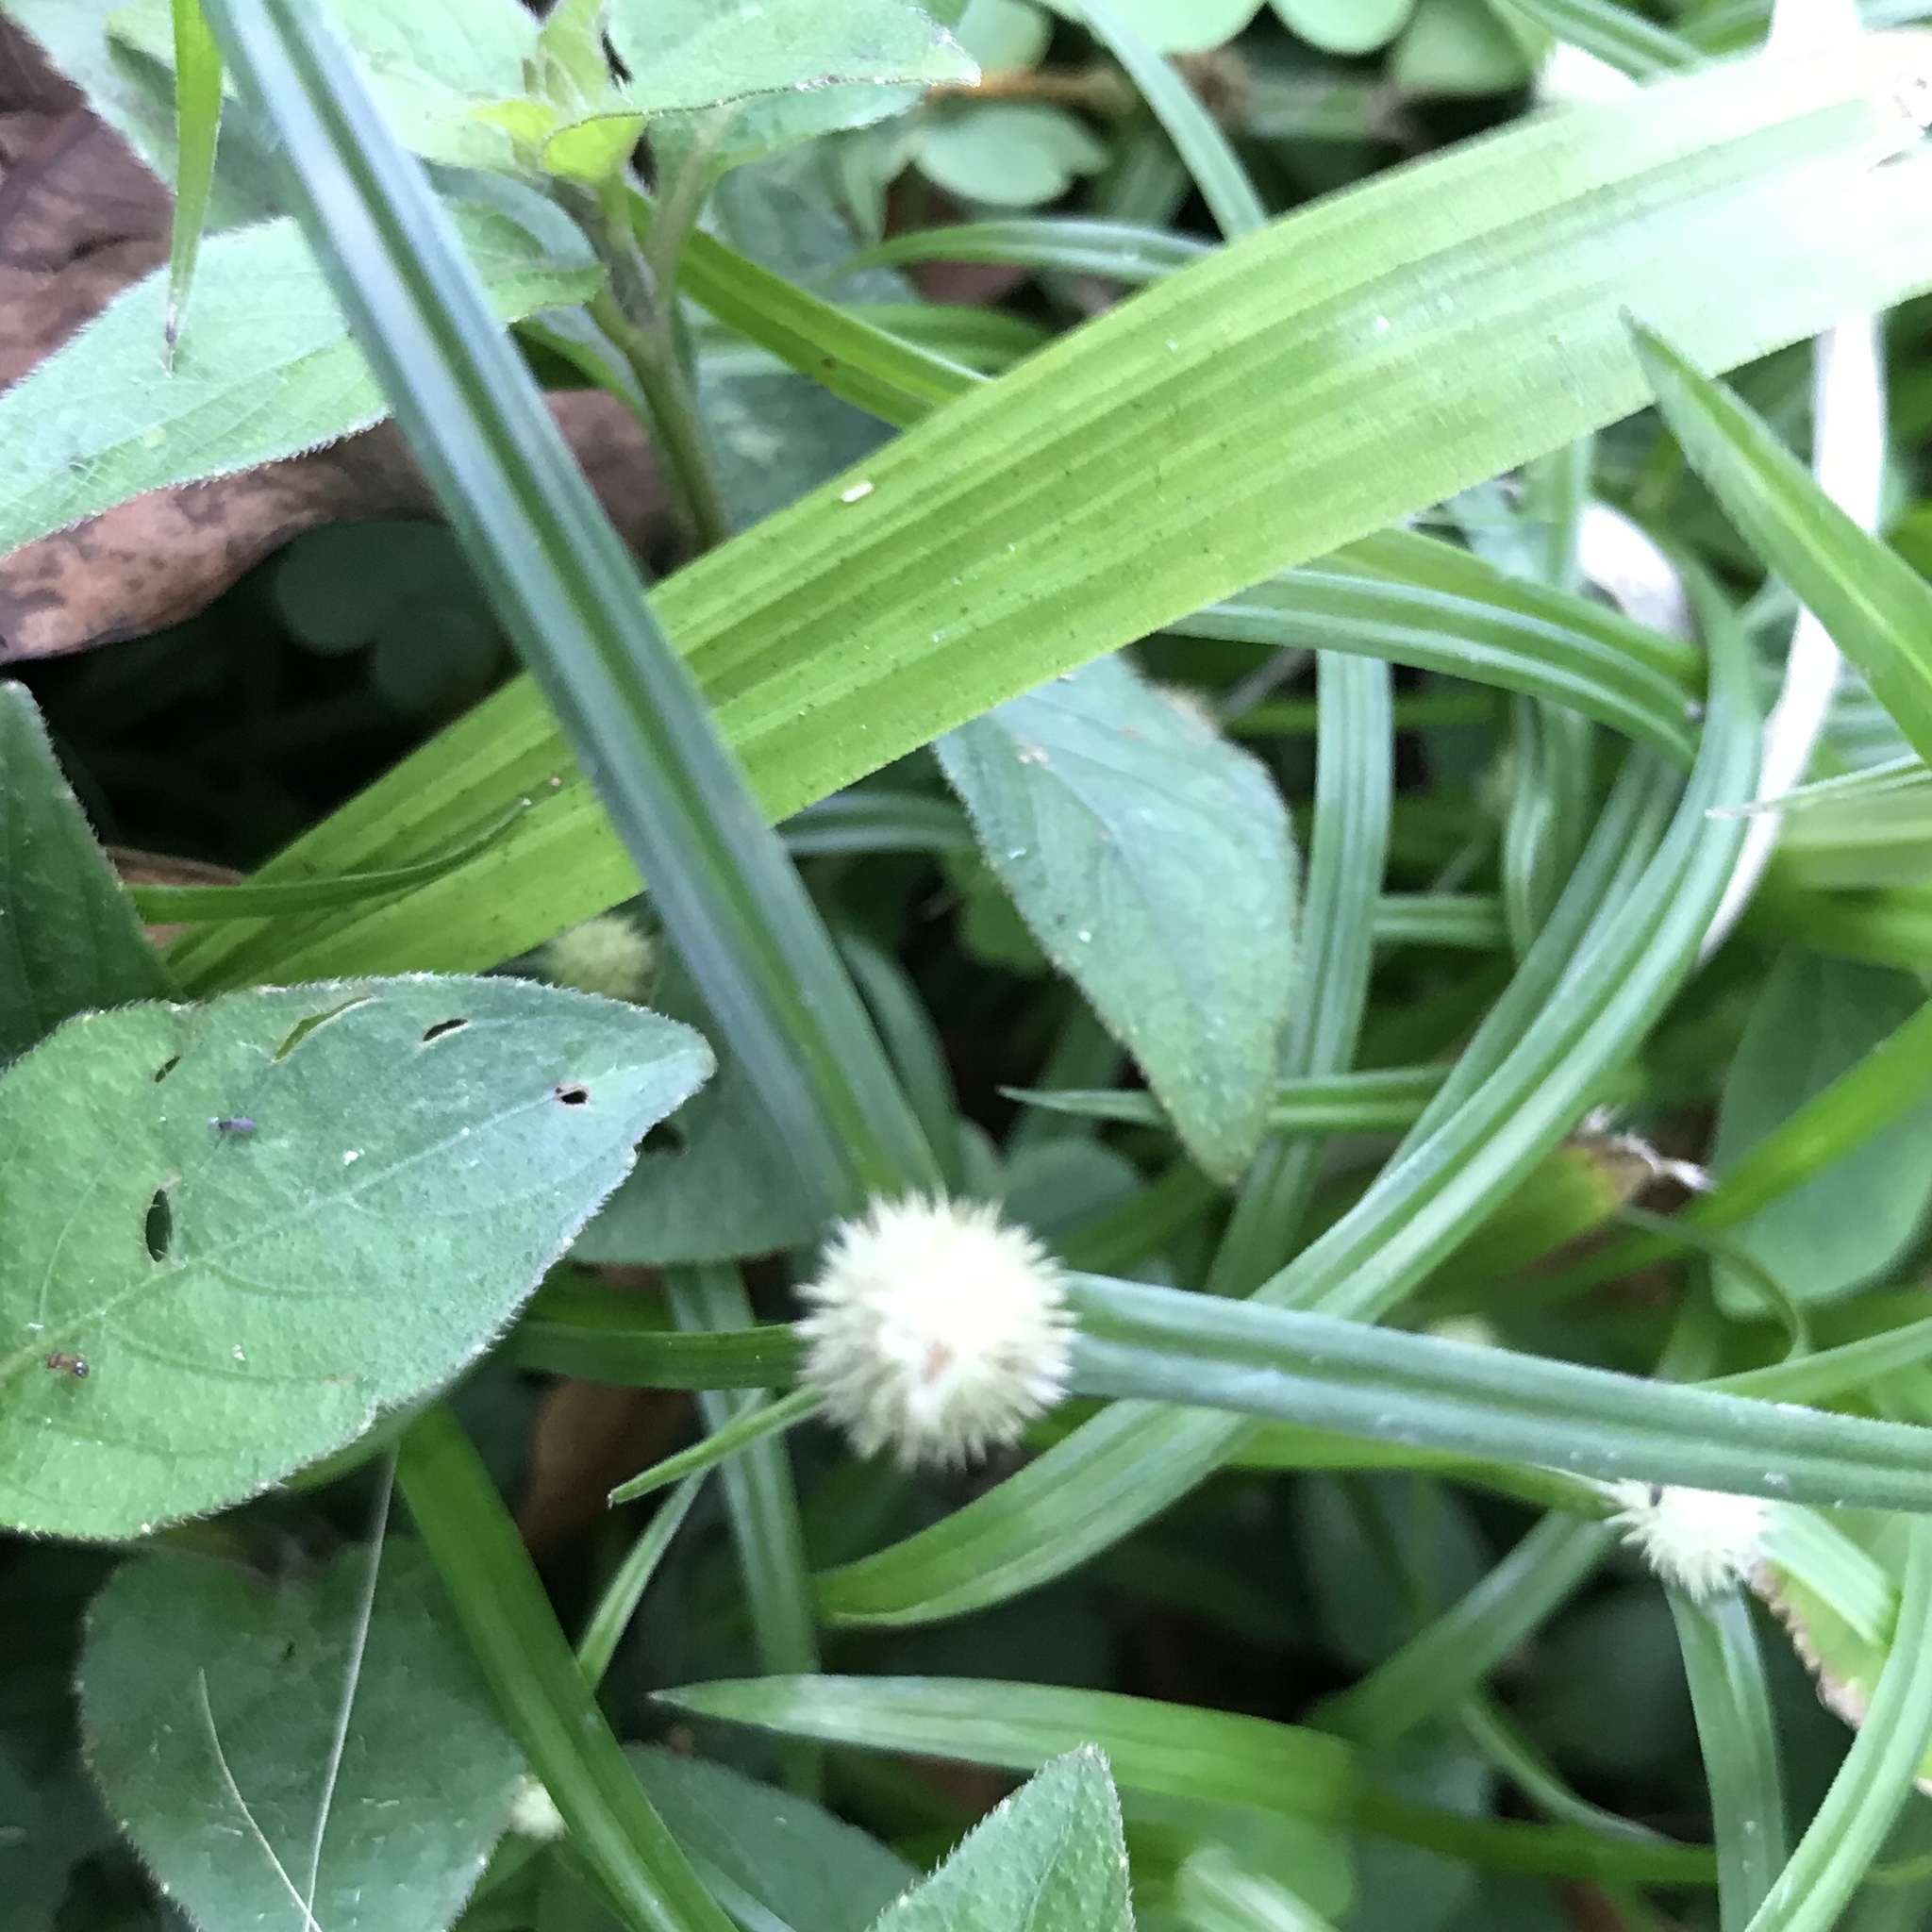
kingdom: Plantae
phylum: Tracheophyta
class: Liliopsida
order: Poales
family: Cyperaceae
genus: Cyperus
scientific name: Cyperus mindorensis
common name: Flatsedge
